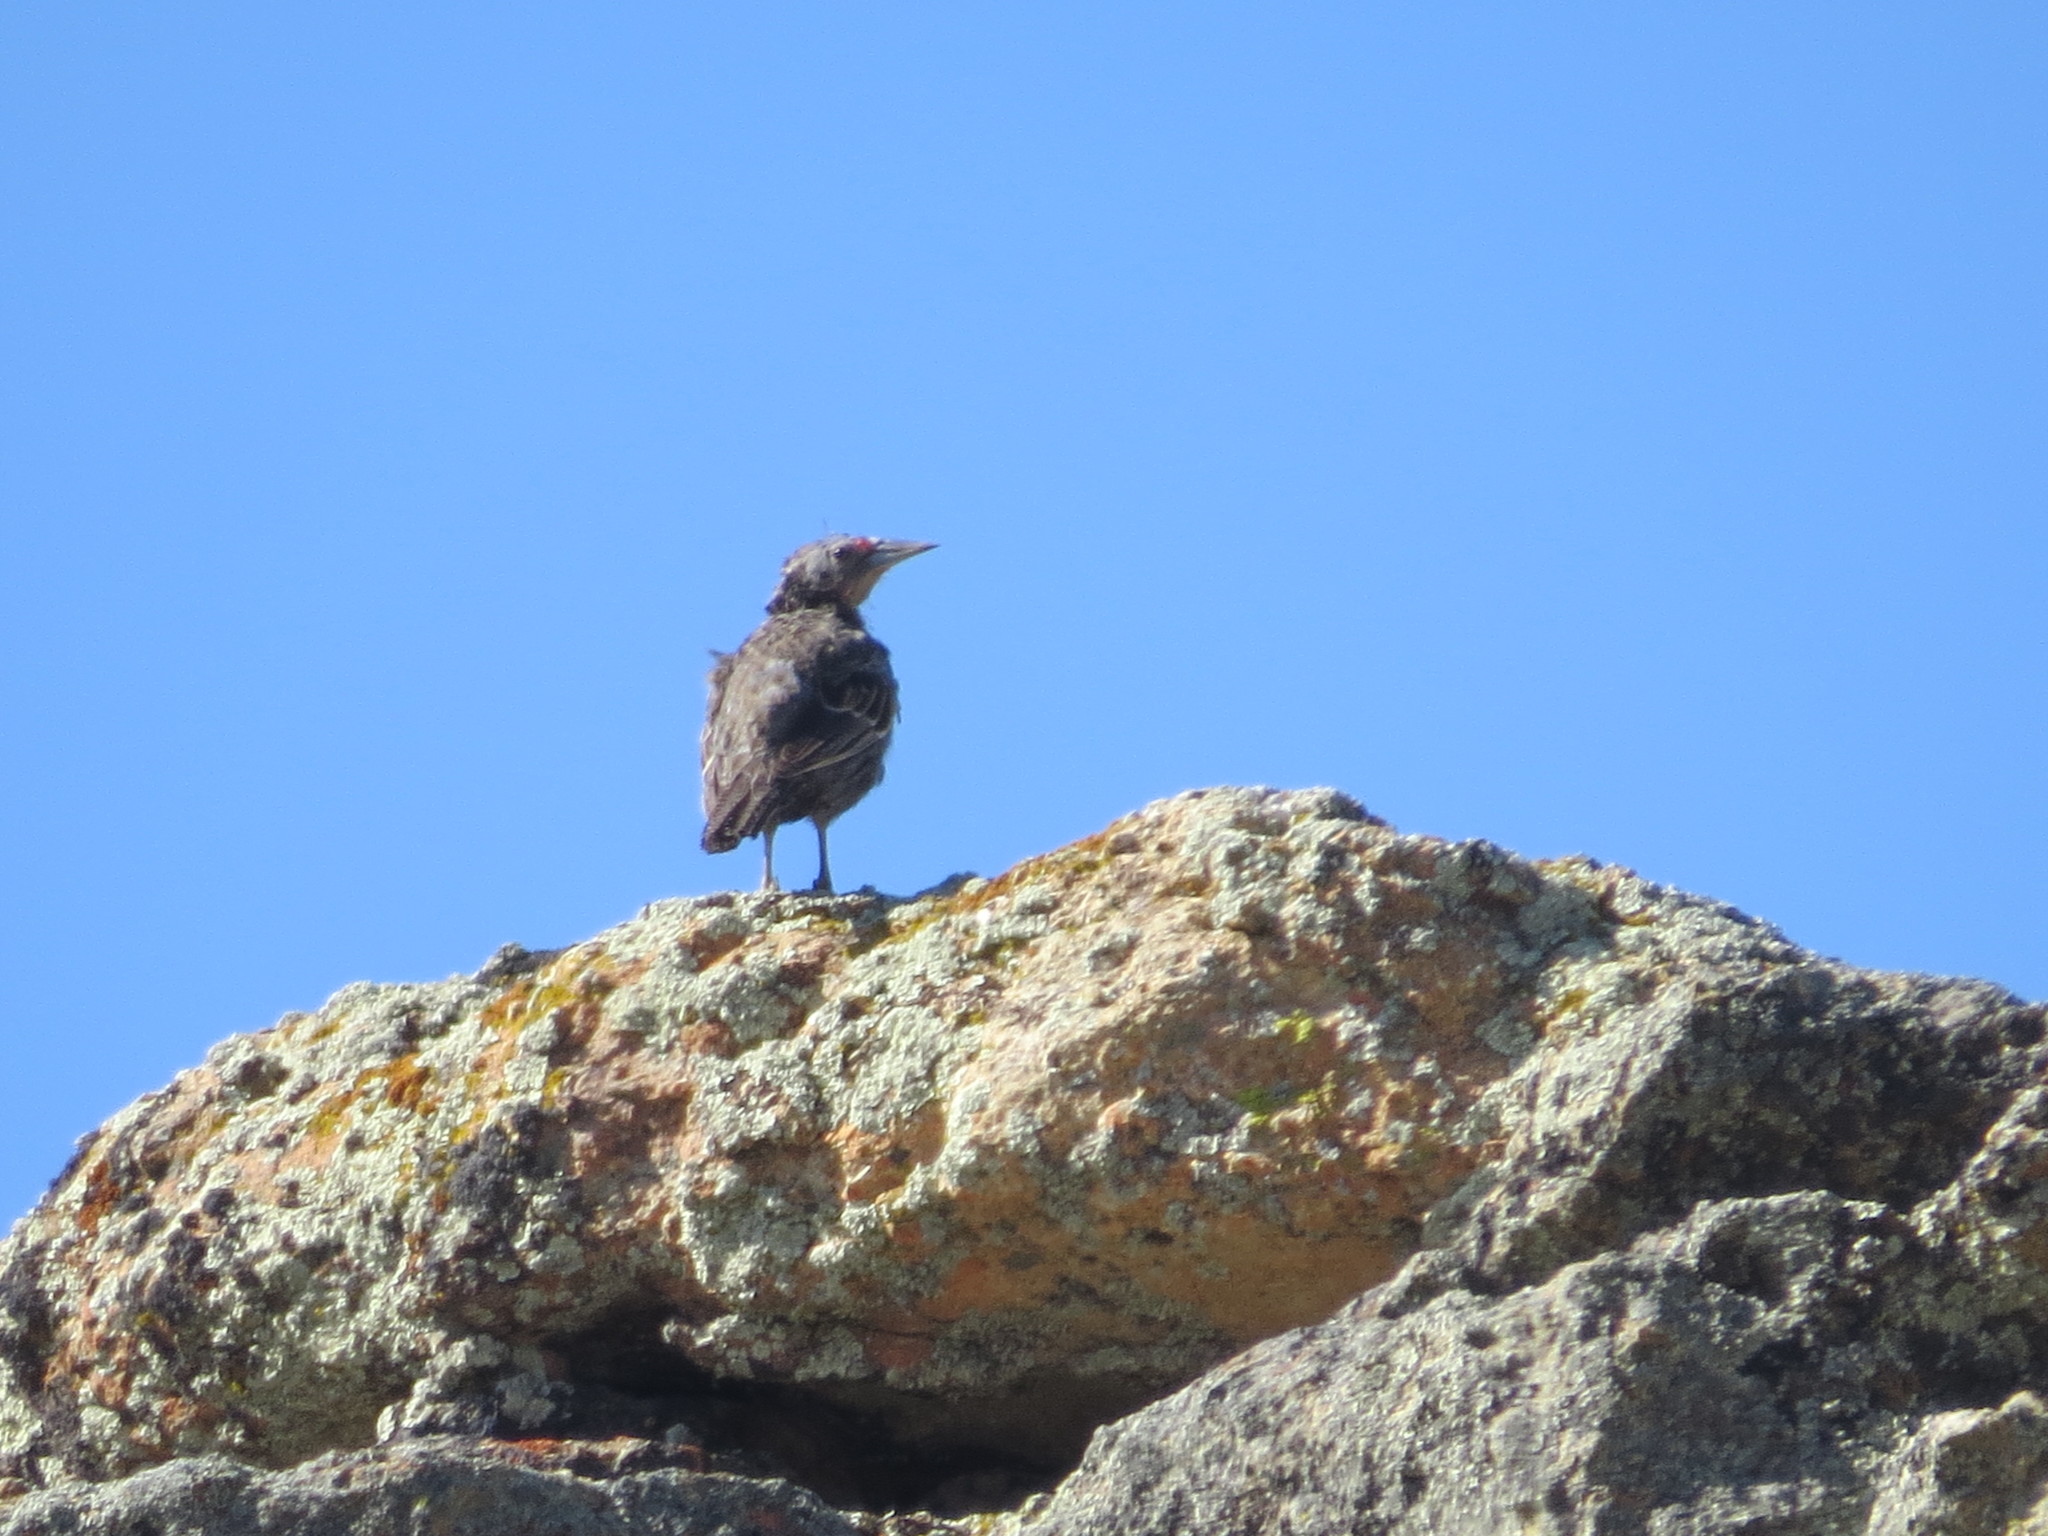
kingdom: Animalia
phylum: Chordata
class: Aves
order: Passeriformes
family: Icteridae
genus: Sturnella
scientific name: Sturnella loyca
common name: Long-tailed meadowlark
